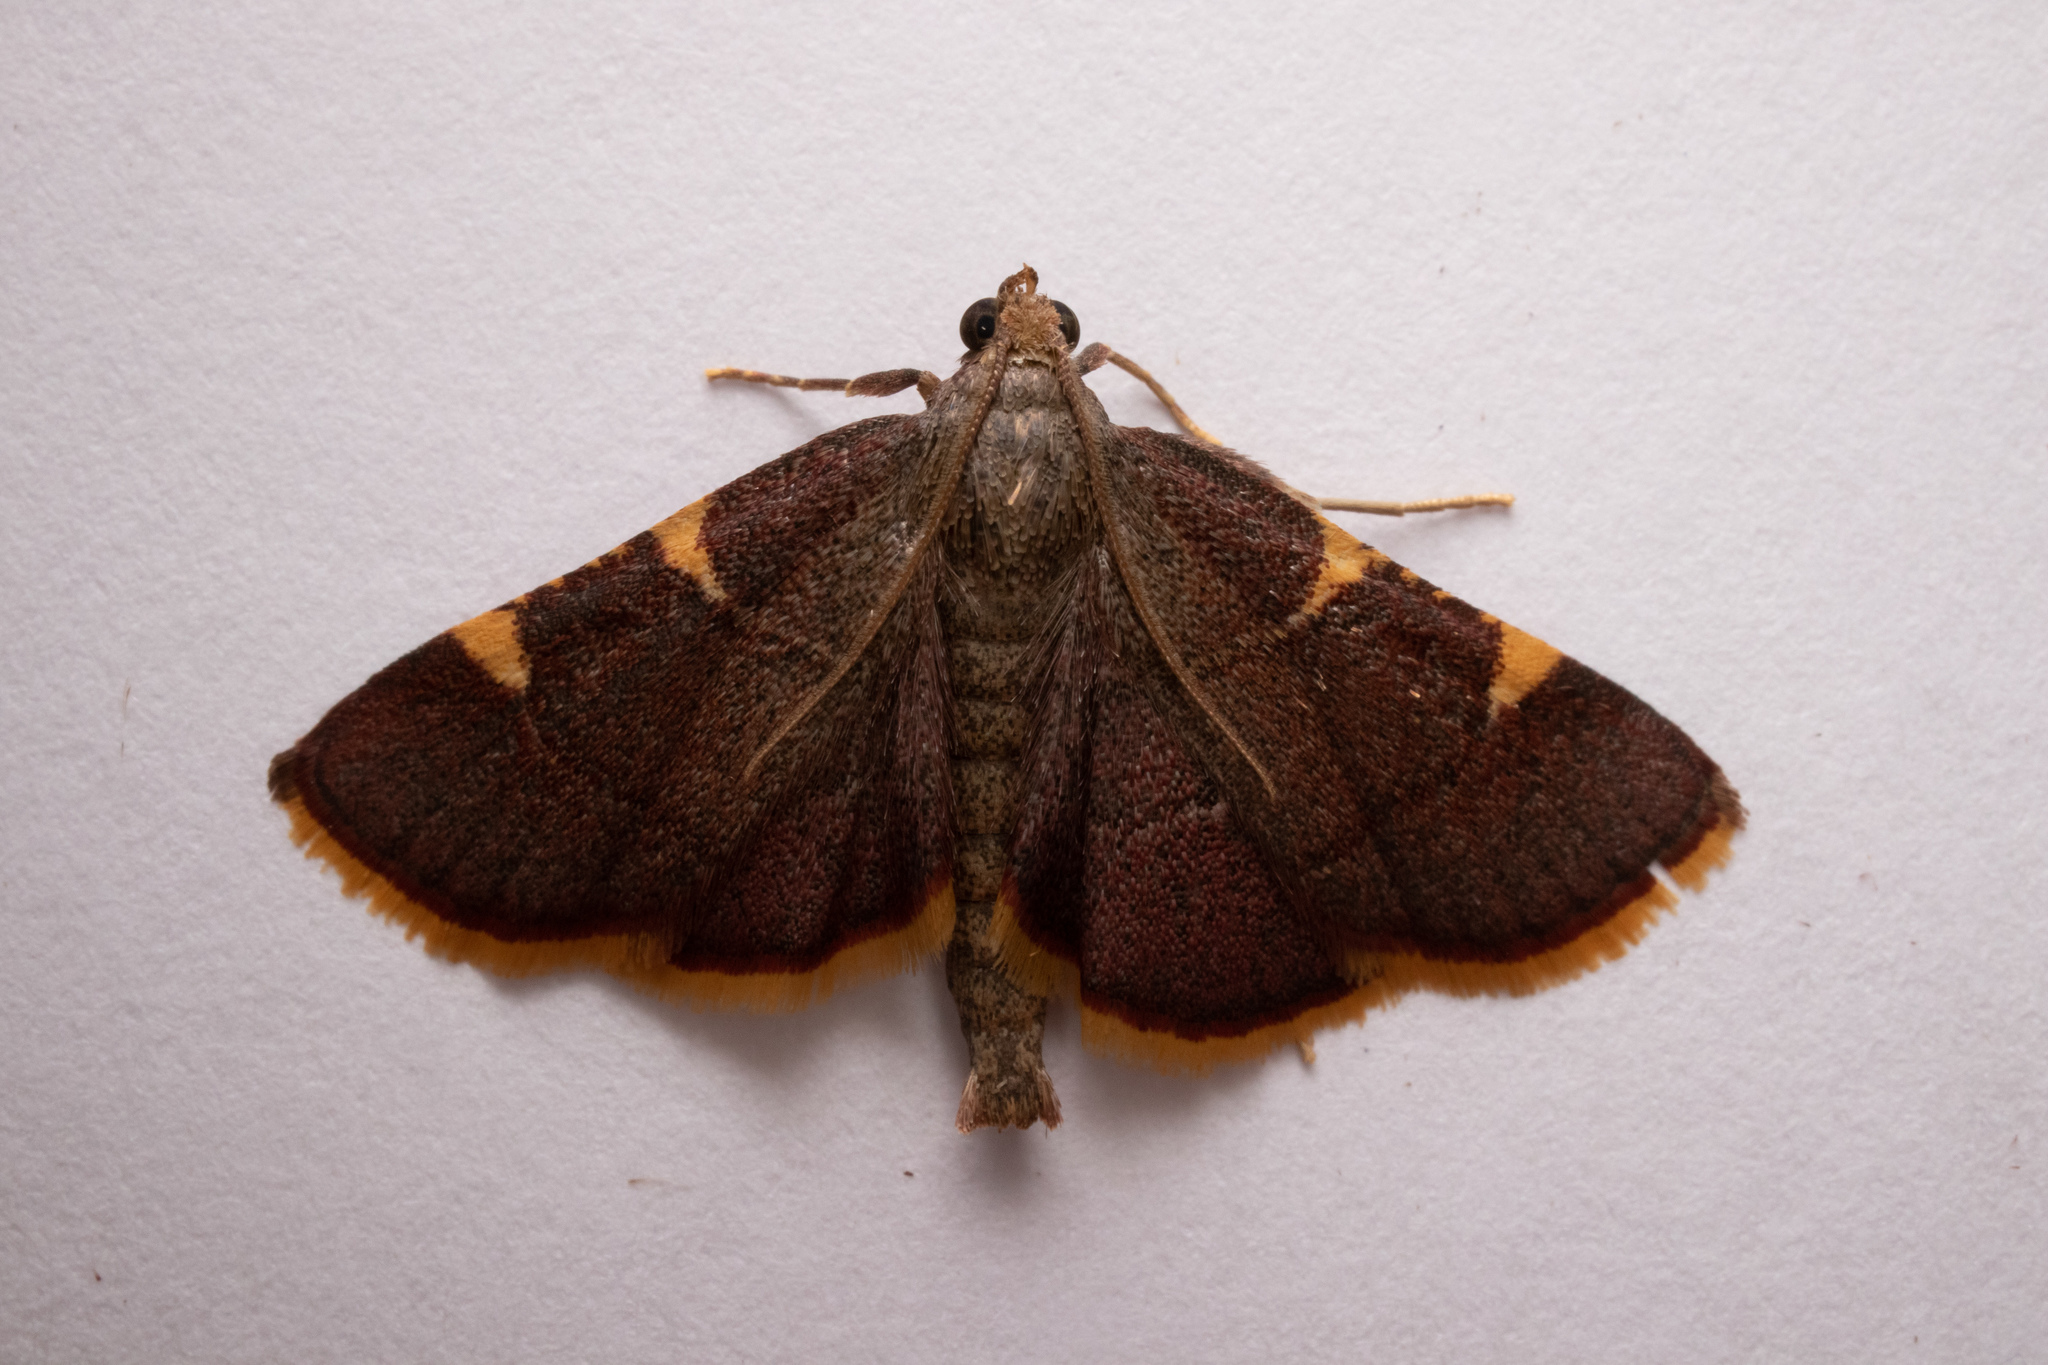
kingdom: Animalia
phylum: Arthropoda
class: Insecta
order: Lepidoptera
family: Pyralidae
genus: Hypsopygia
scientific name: Hypsopygia olinalis
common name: Yellow-fringed dolichomia moth
